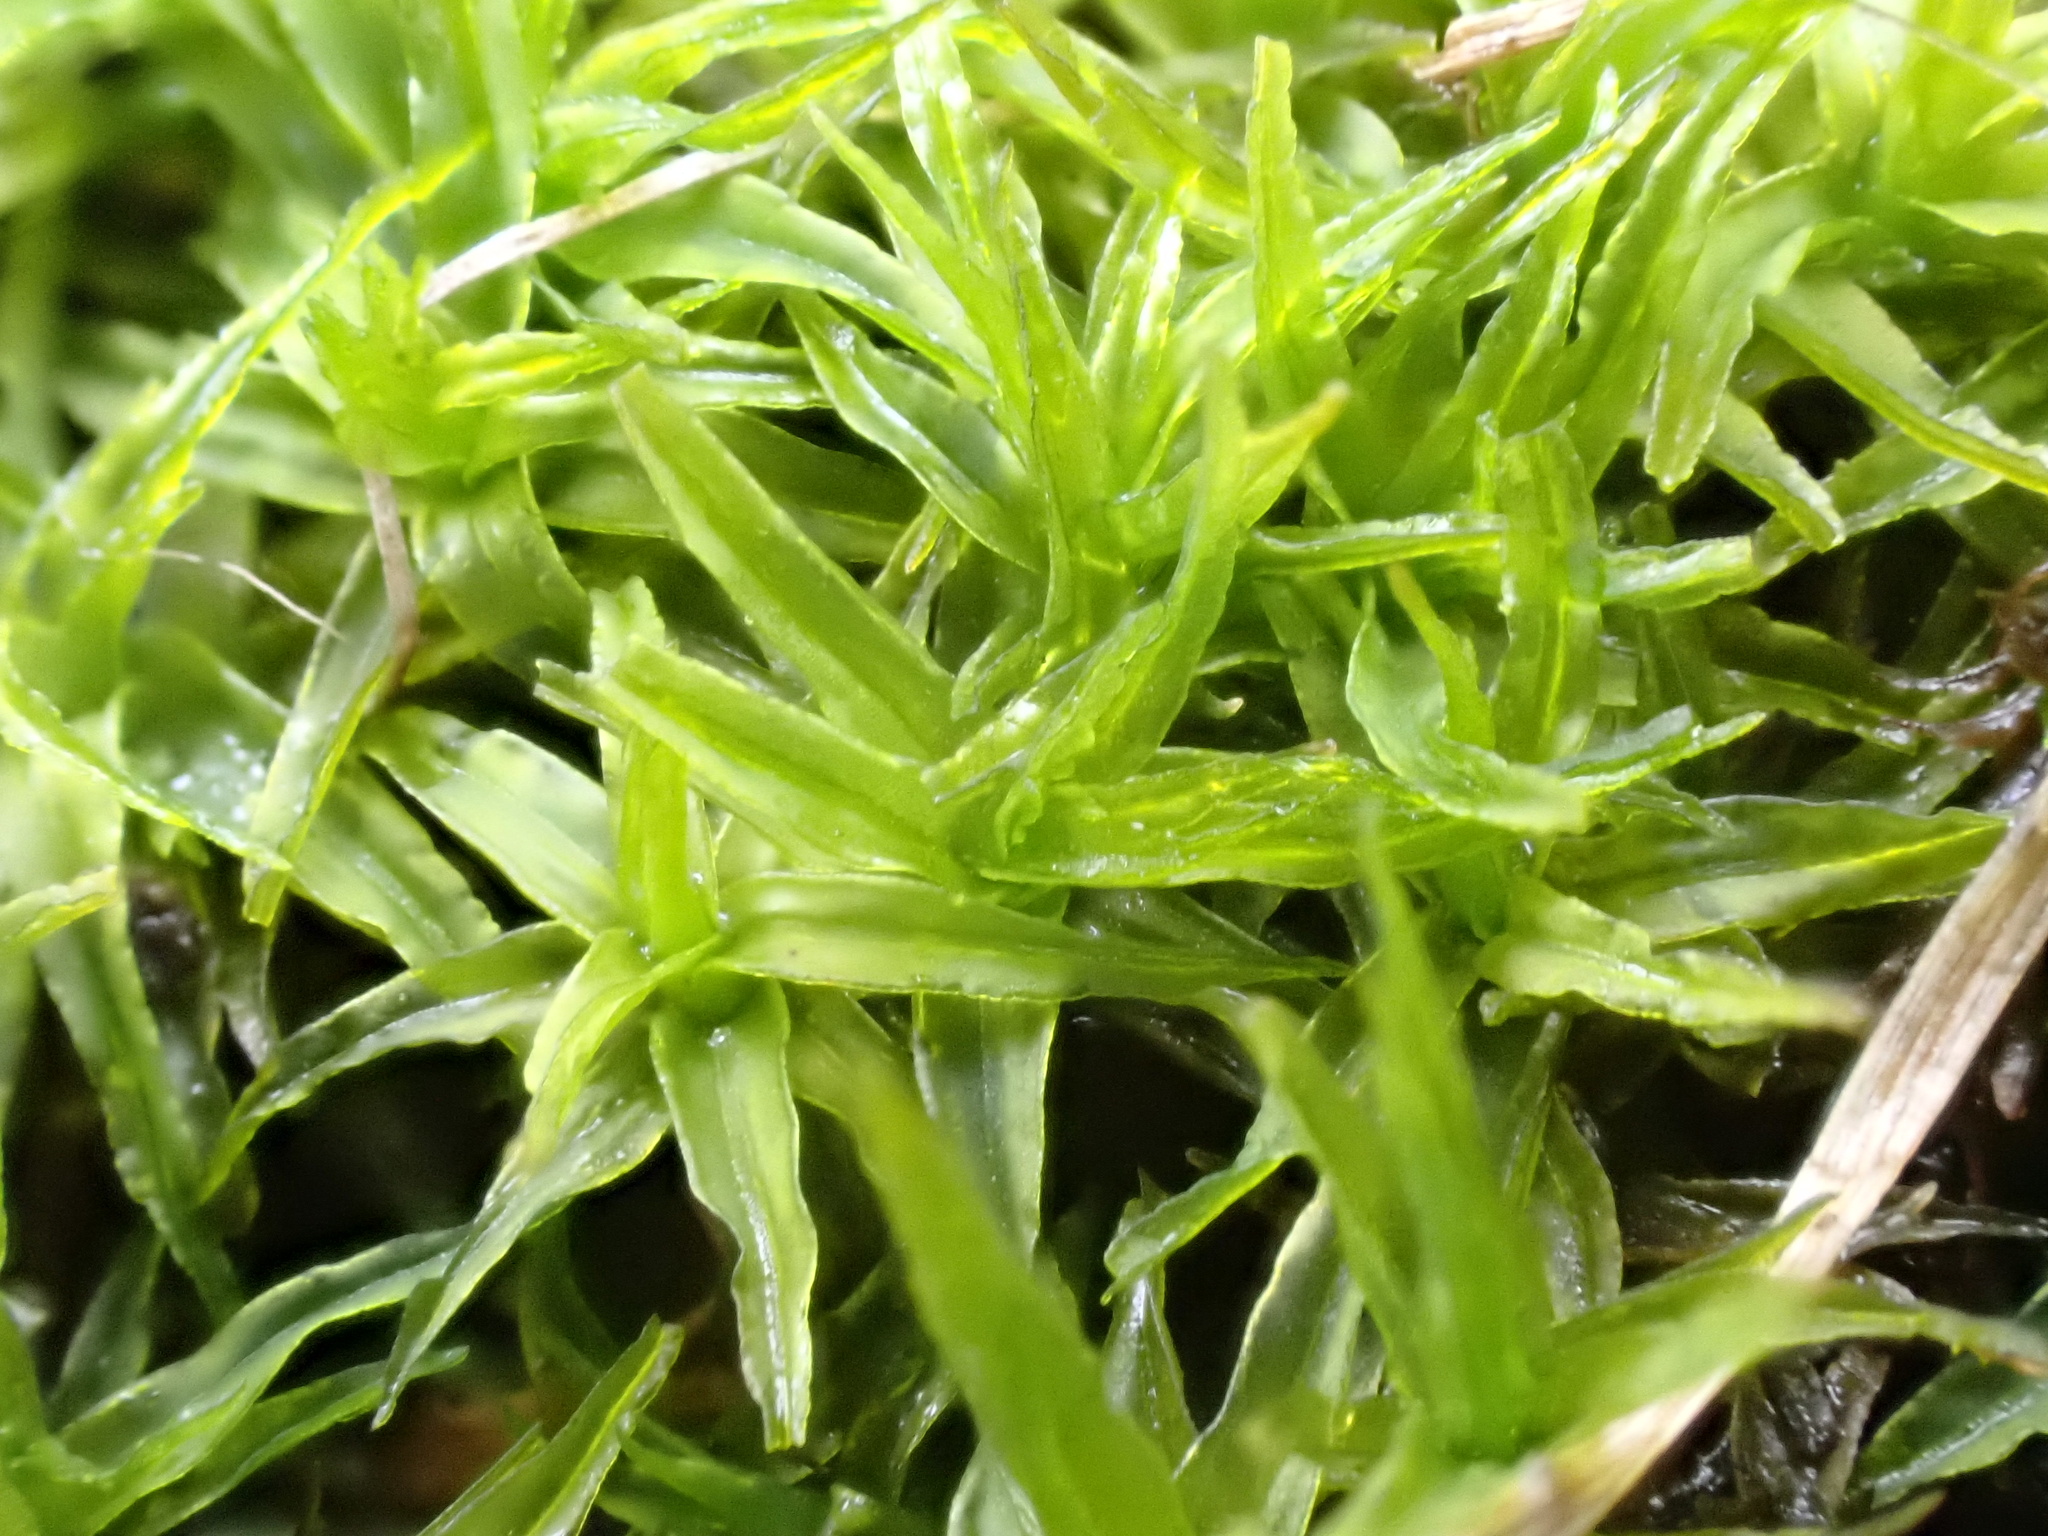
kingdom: Plantae
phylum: Bryophyta
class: Bryopsida
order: Pottiales
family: Pottiaceae
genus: Husnotiella
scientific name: Husnotiella sinuosa
